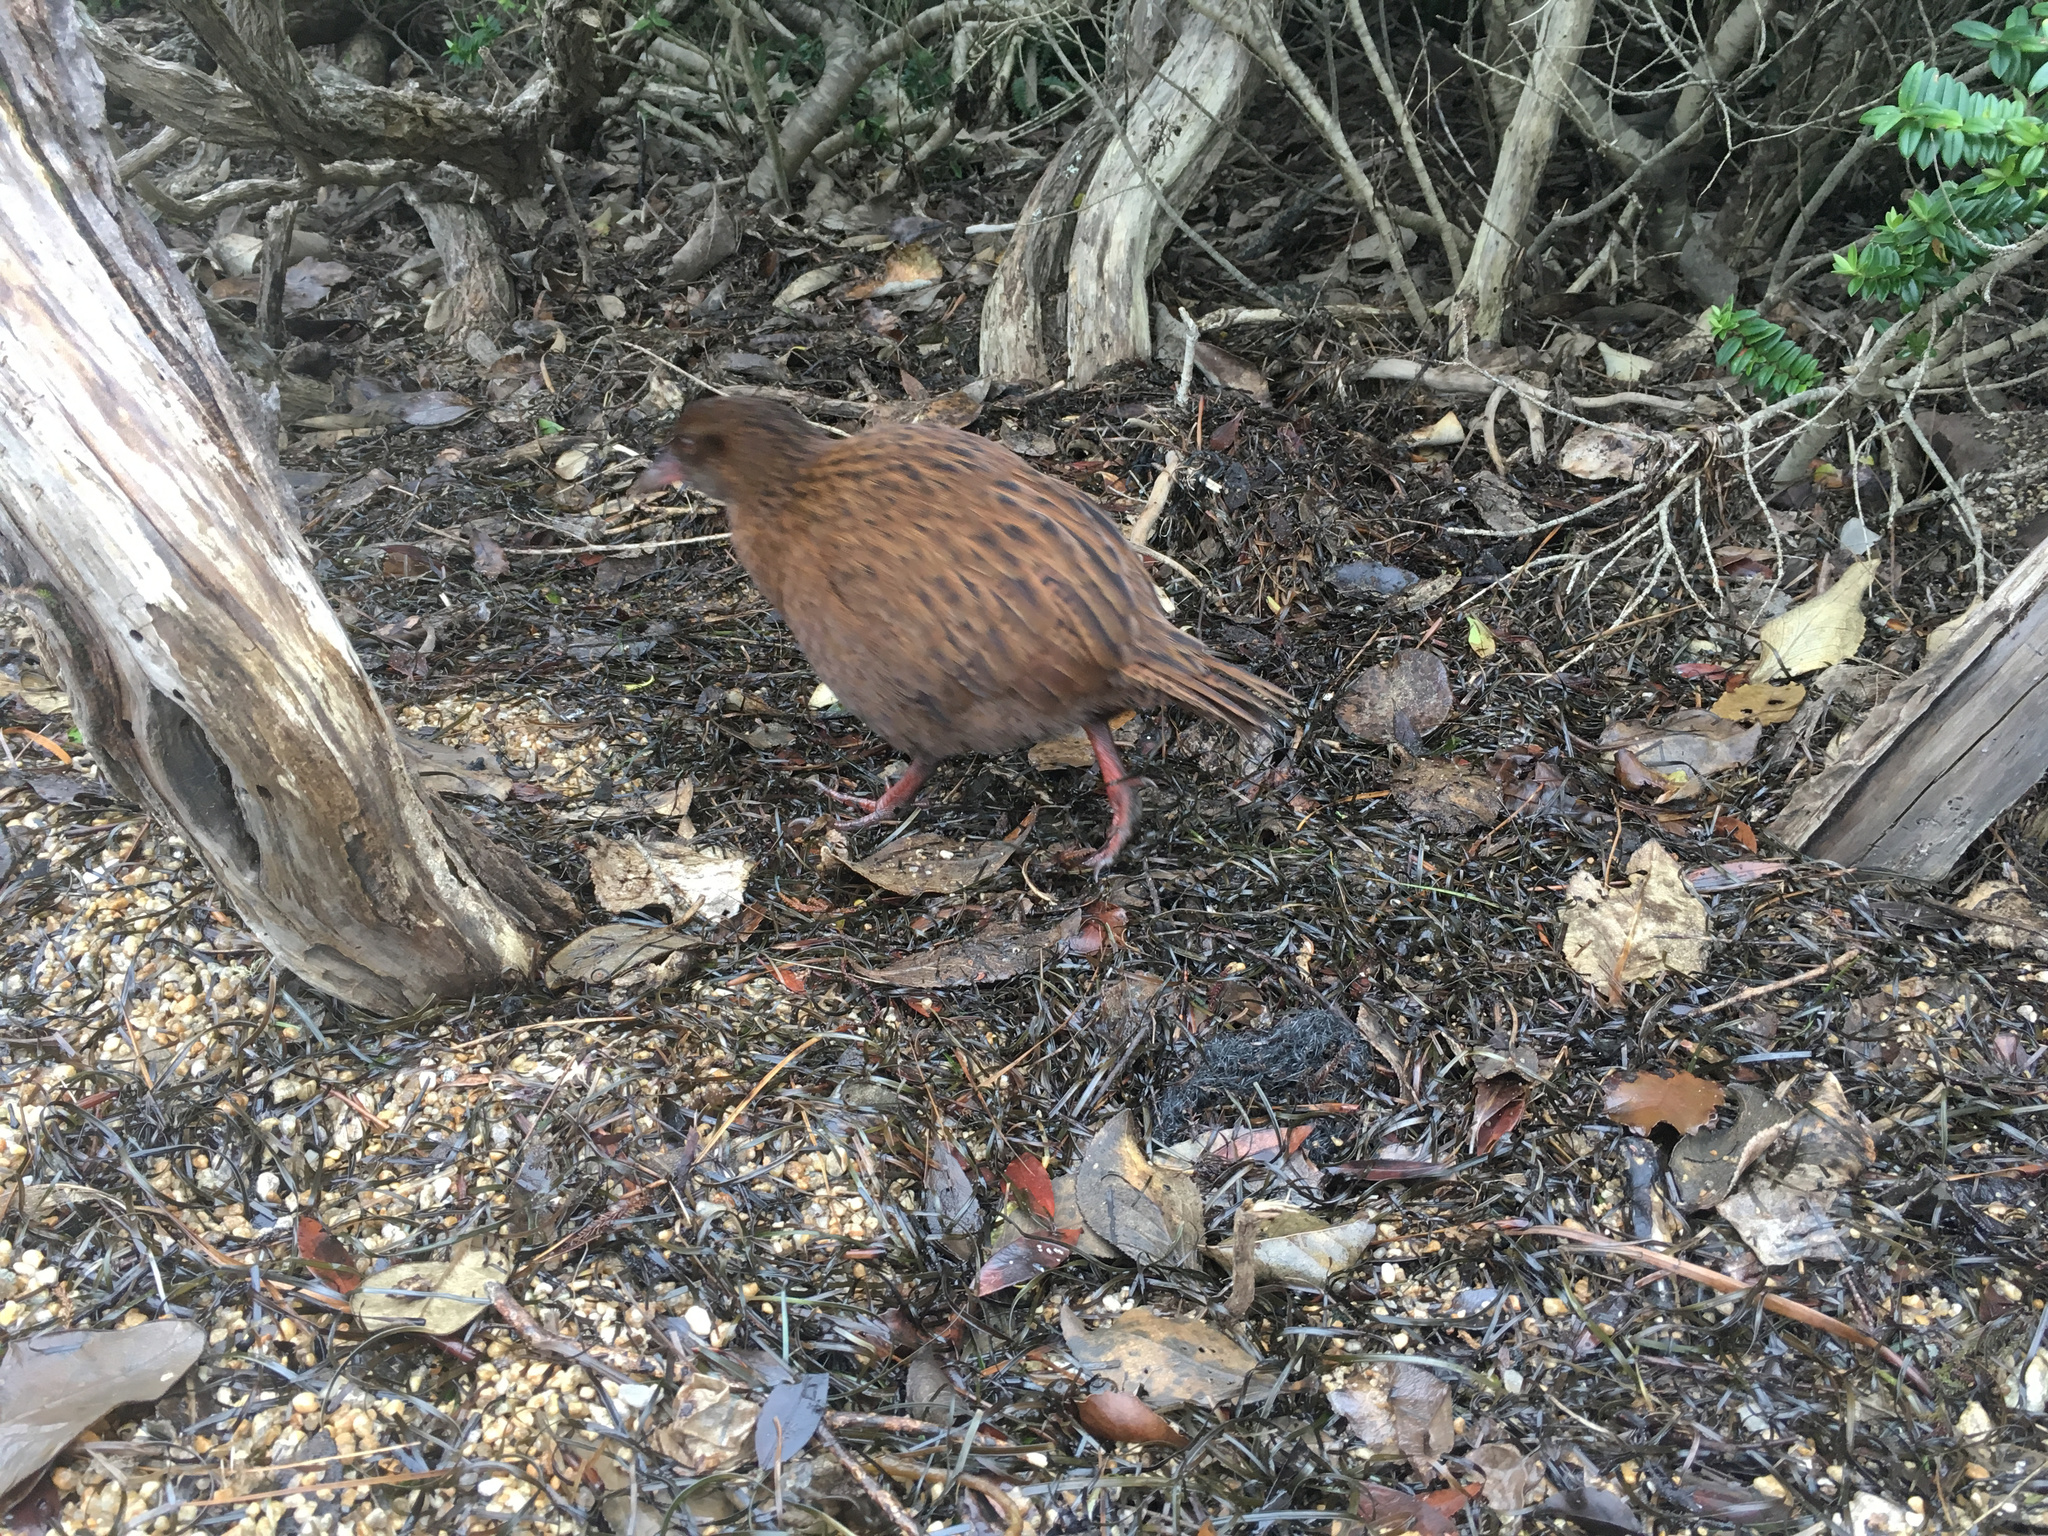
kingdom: Animalia
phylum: Chordata
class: Aves
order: Gruiformes
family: Rallidae
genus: Gallirallus
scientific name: Gallirallus australis
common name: Weka
